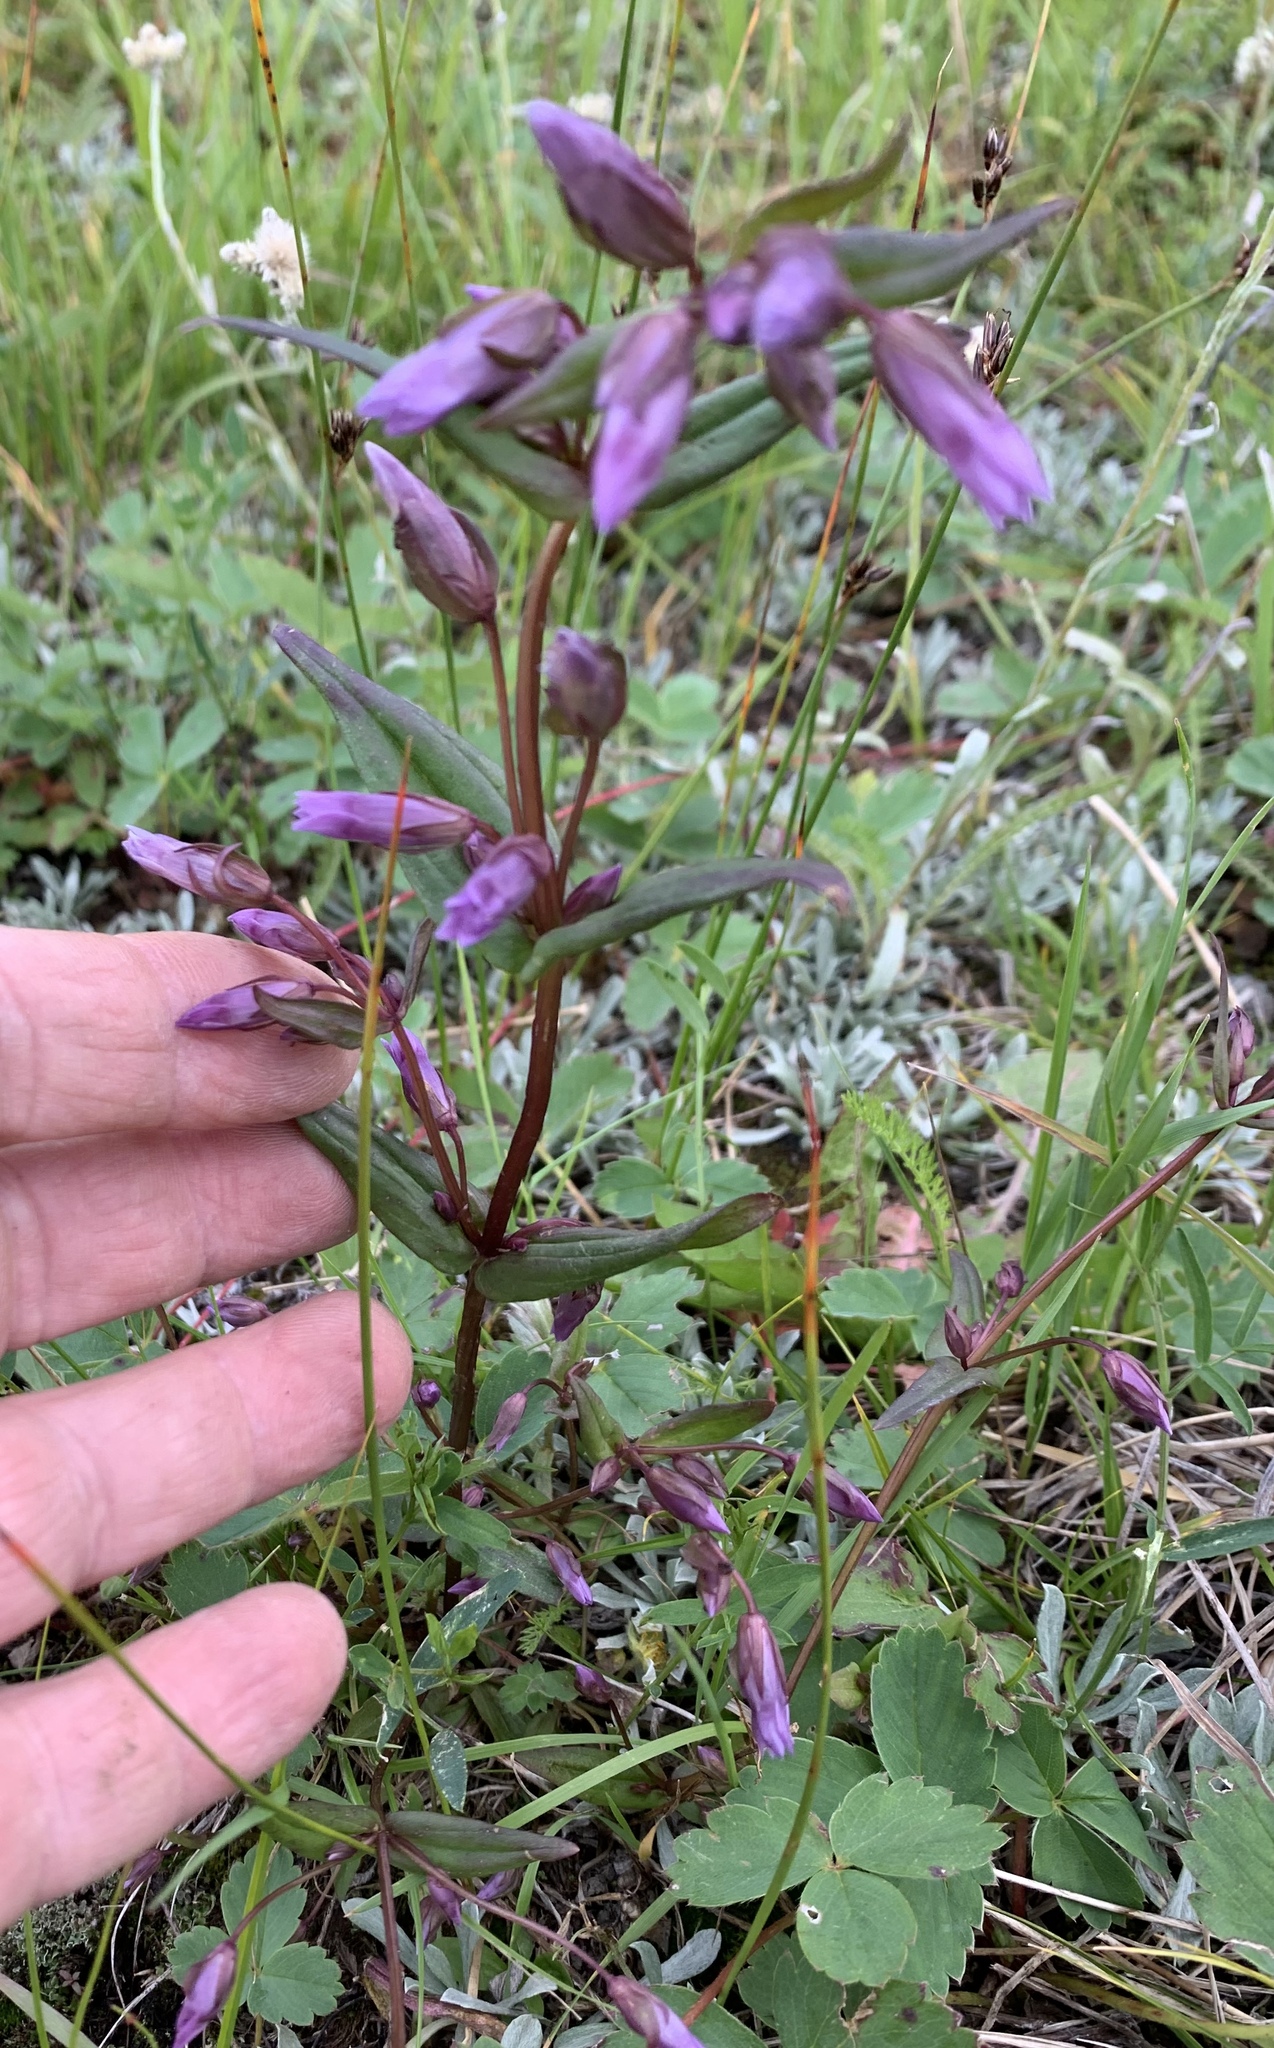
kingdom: Plantae
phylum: Tracheophyta
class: Magnoliopsida
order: Gentianales
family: Gentianaceae
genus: Gentianella
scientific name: Gentianella amarella
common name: Autumn gentian
